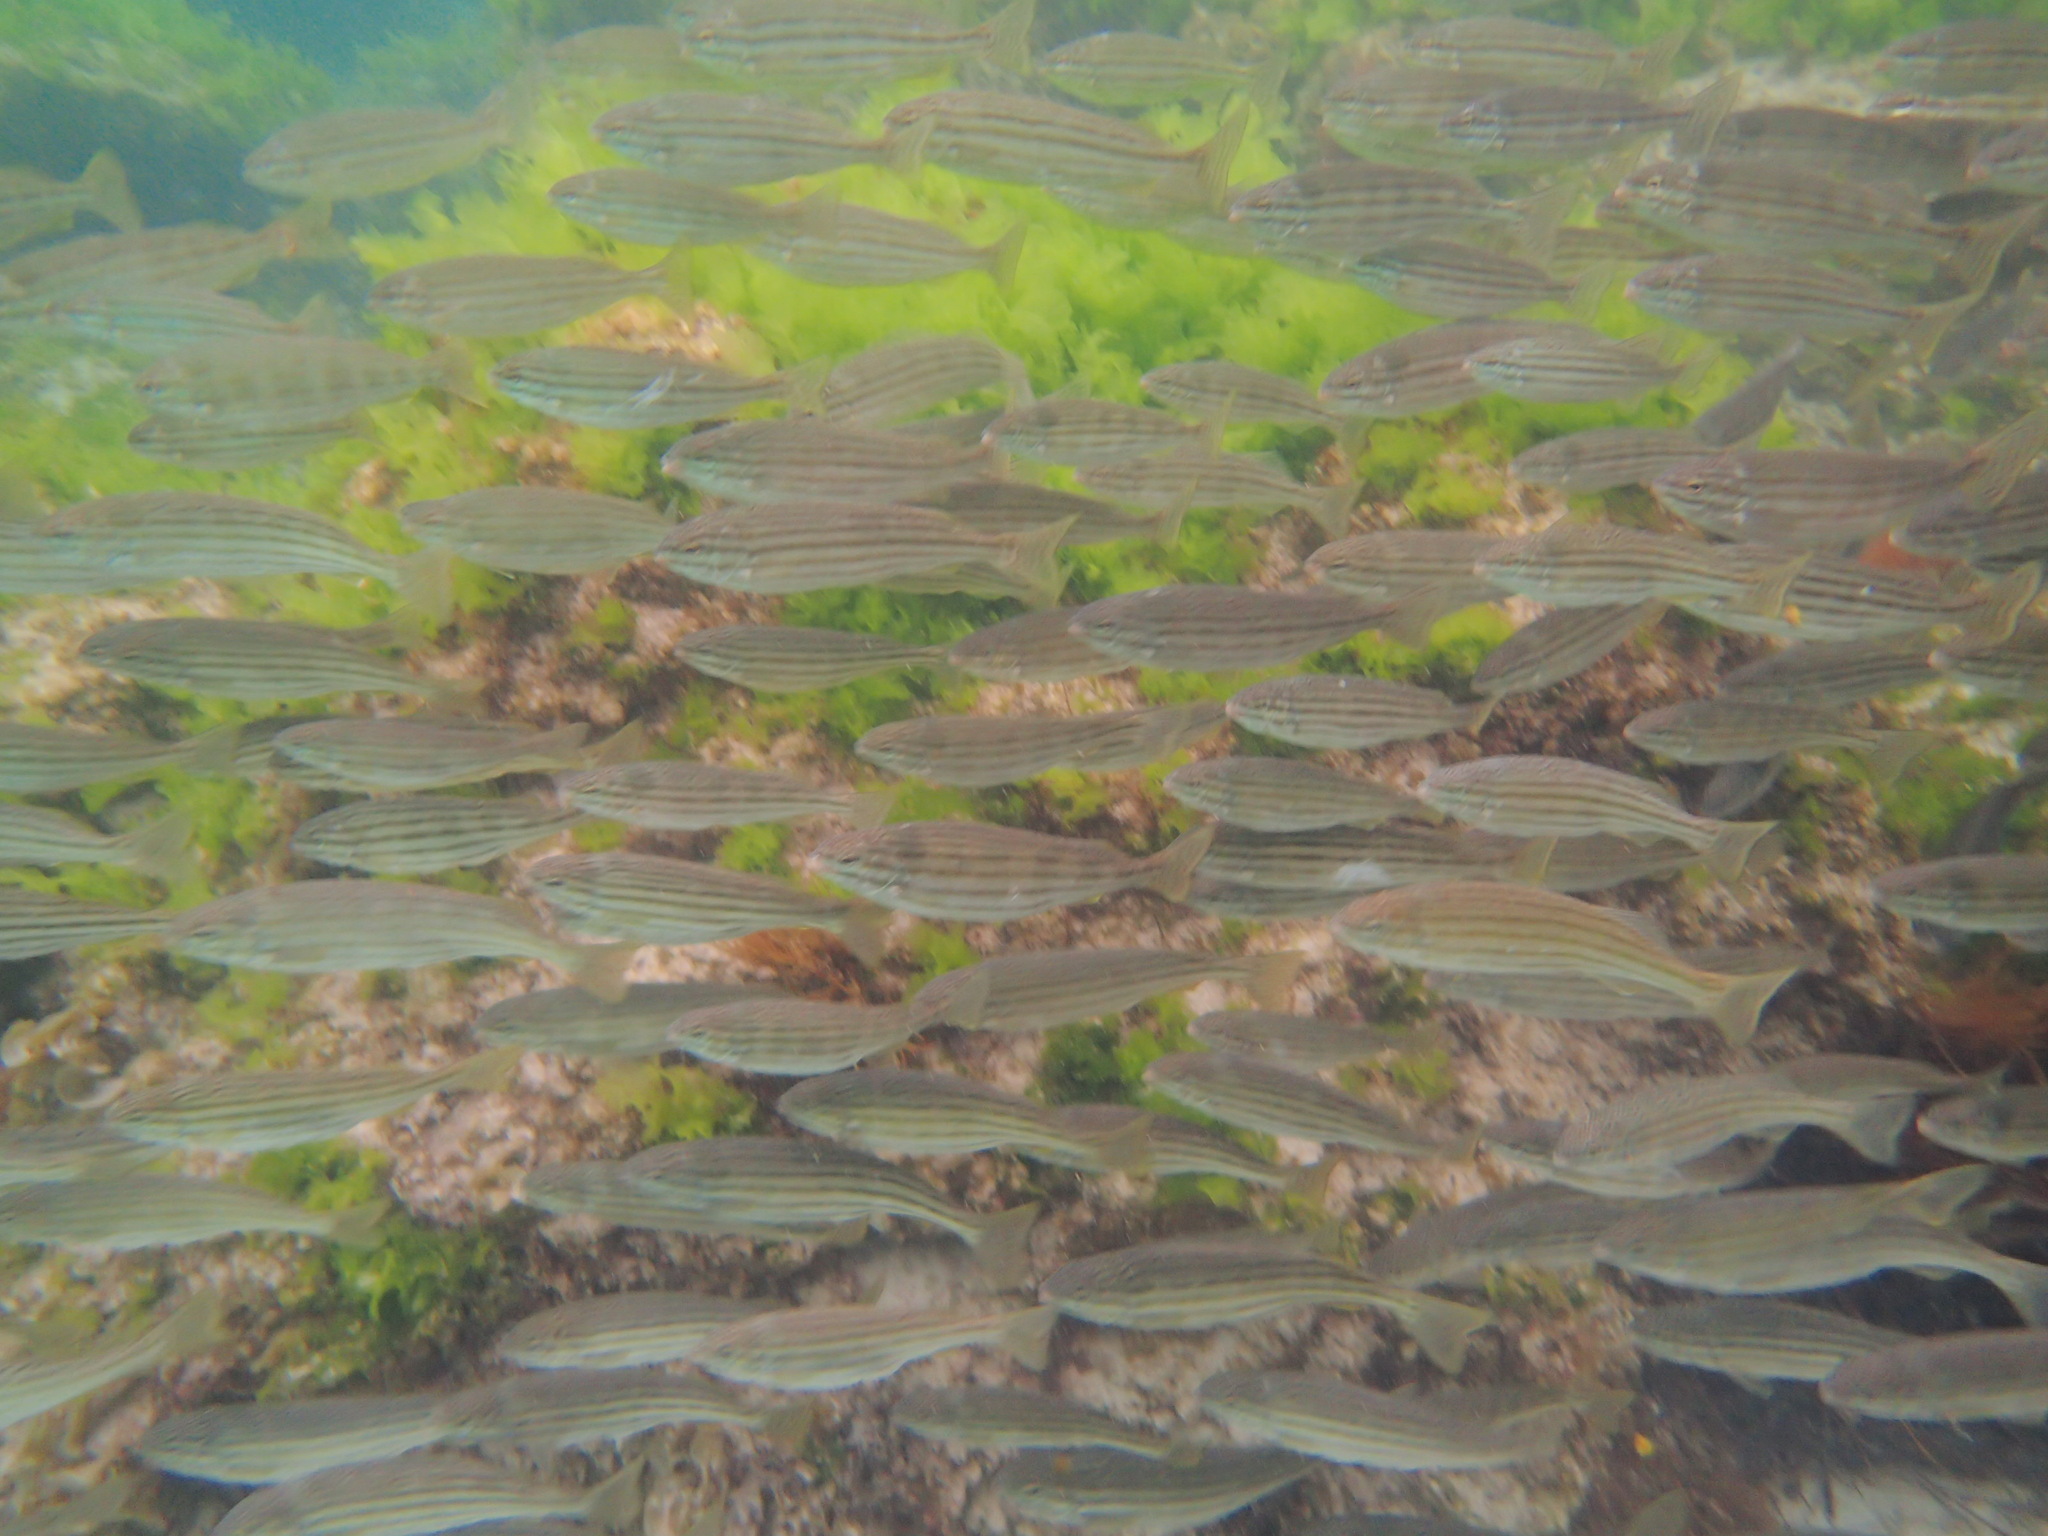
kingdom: Animalia
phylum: Chordata
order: Perciformes
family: Terapontidae
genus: Pelates
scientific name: Pelates octolineatus
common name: Eight-lined trumpeter
